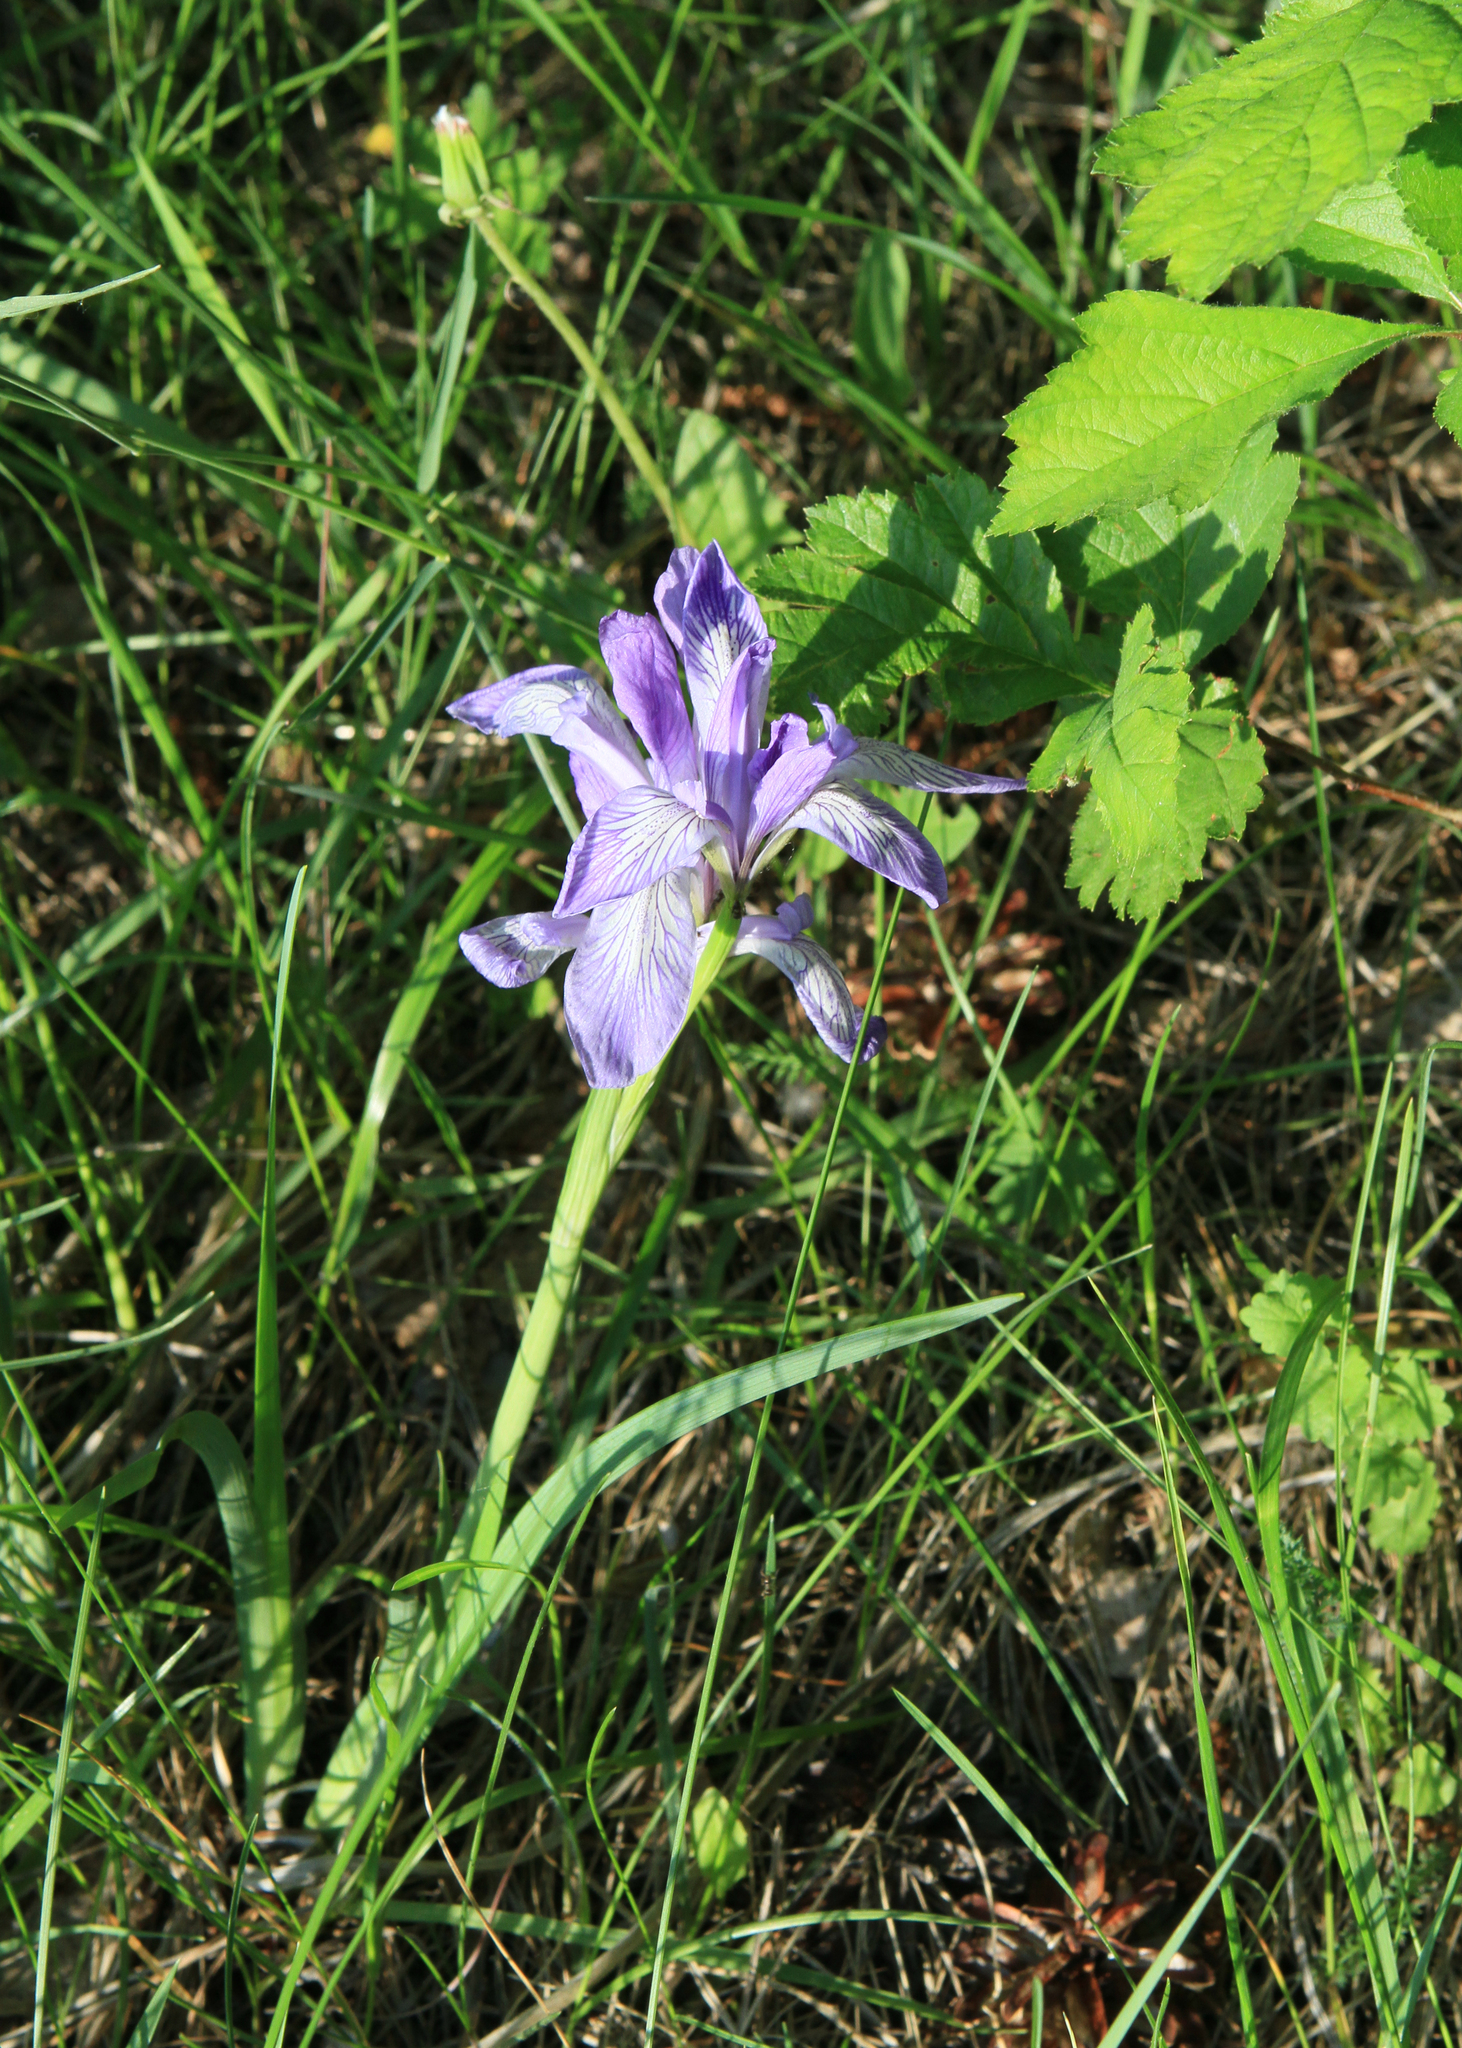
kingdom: Plantae
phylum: Tracheophyta
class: Liliopsida
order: Asparagales
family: Iridaceae
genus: Iris
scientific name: Iris lactea
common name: White-flower chinese iris
